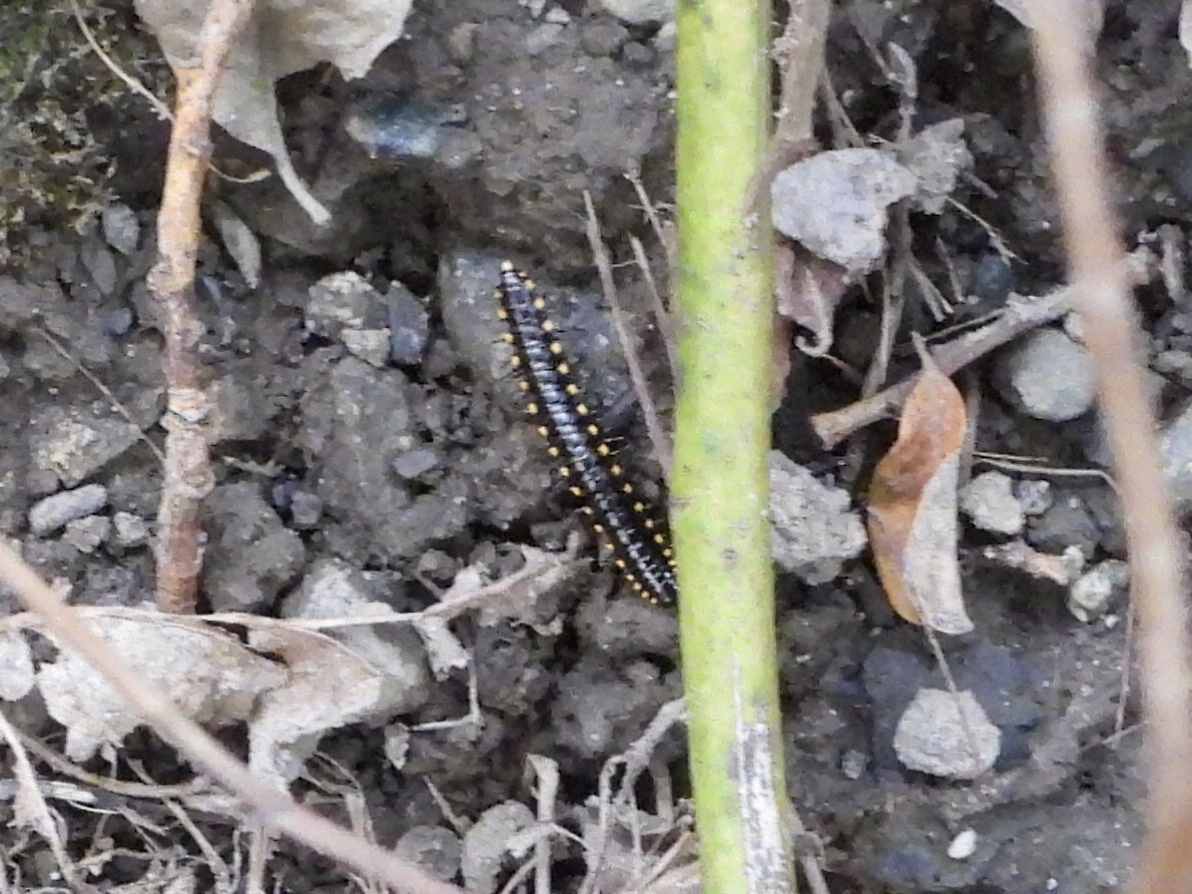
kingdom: Animalia
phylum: Arthropoda
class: Diplopoda
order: Polydesmida
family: Xystodesmidae
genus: Harpaphe
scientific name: Harpaphe haydeniana
